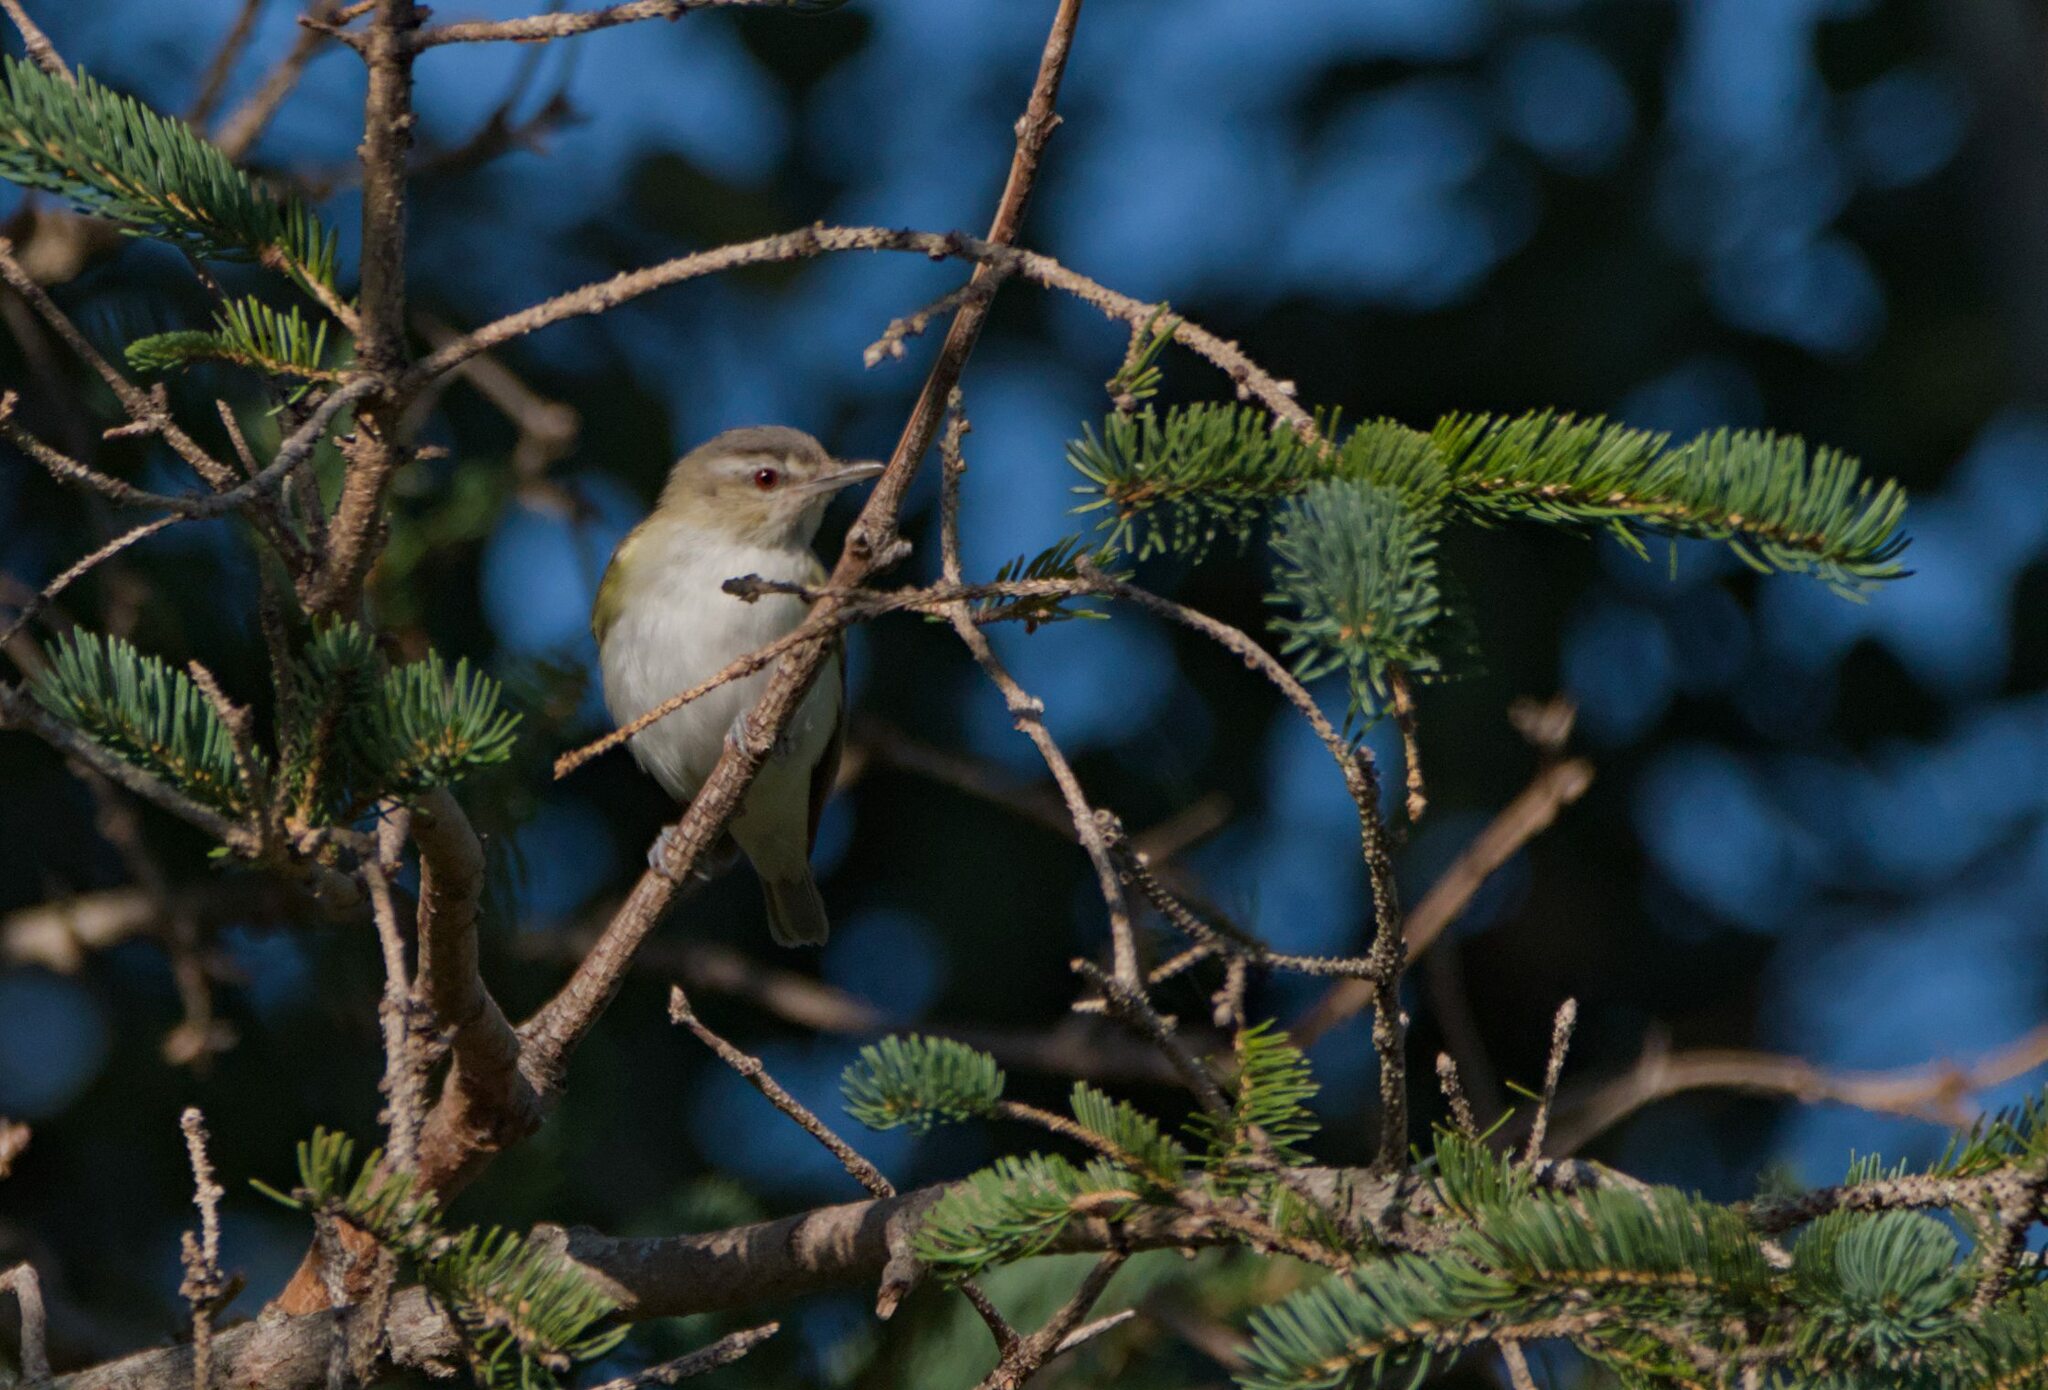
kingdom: Animalia
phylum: Chordata
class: Aves
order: Passeriformes
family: Vireonidae
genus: Vireo
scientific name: Vireo olivaceus
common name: Red-eyed vireo
